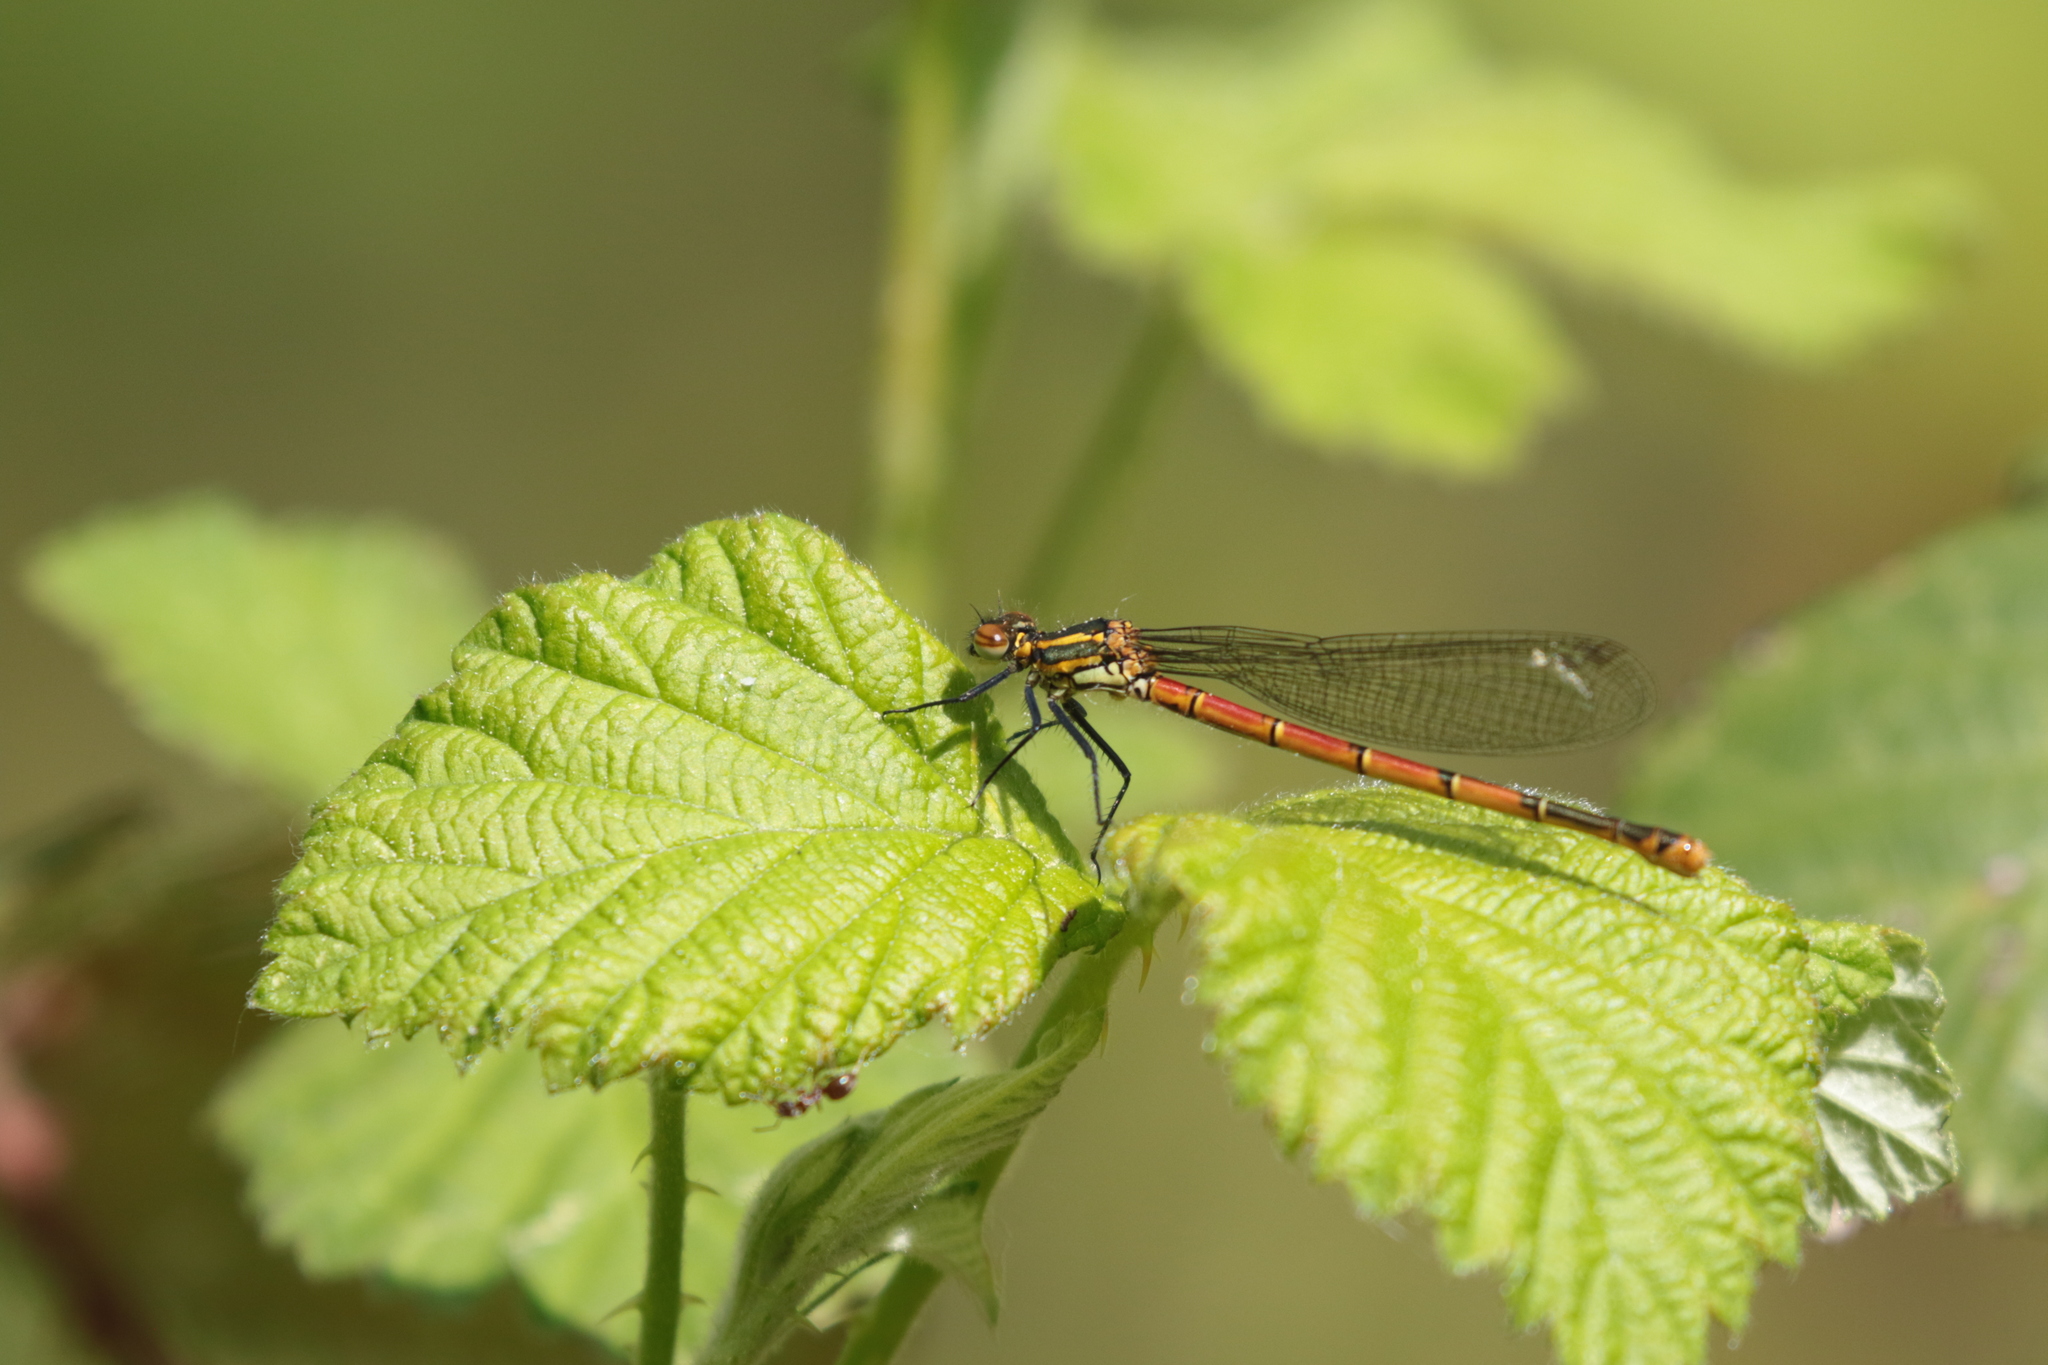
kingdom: Animalia
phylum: Arthropoda
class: Insecta
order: Odonata
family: Coenagrionidae
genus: Pyrrhosoma
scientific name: Pyrrhosoma nymphula
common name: Large red damsel
